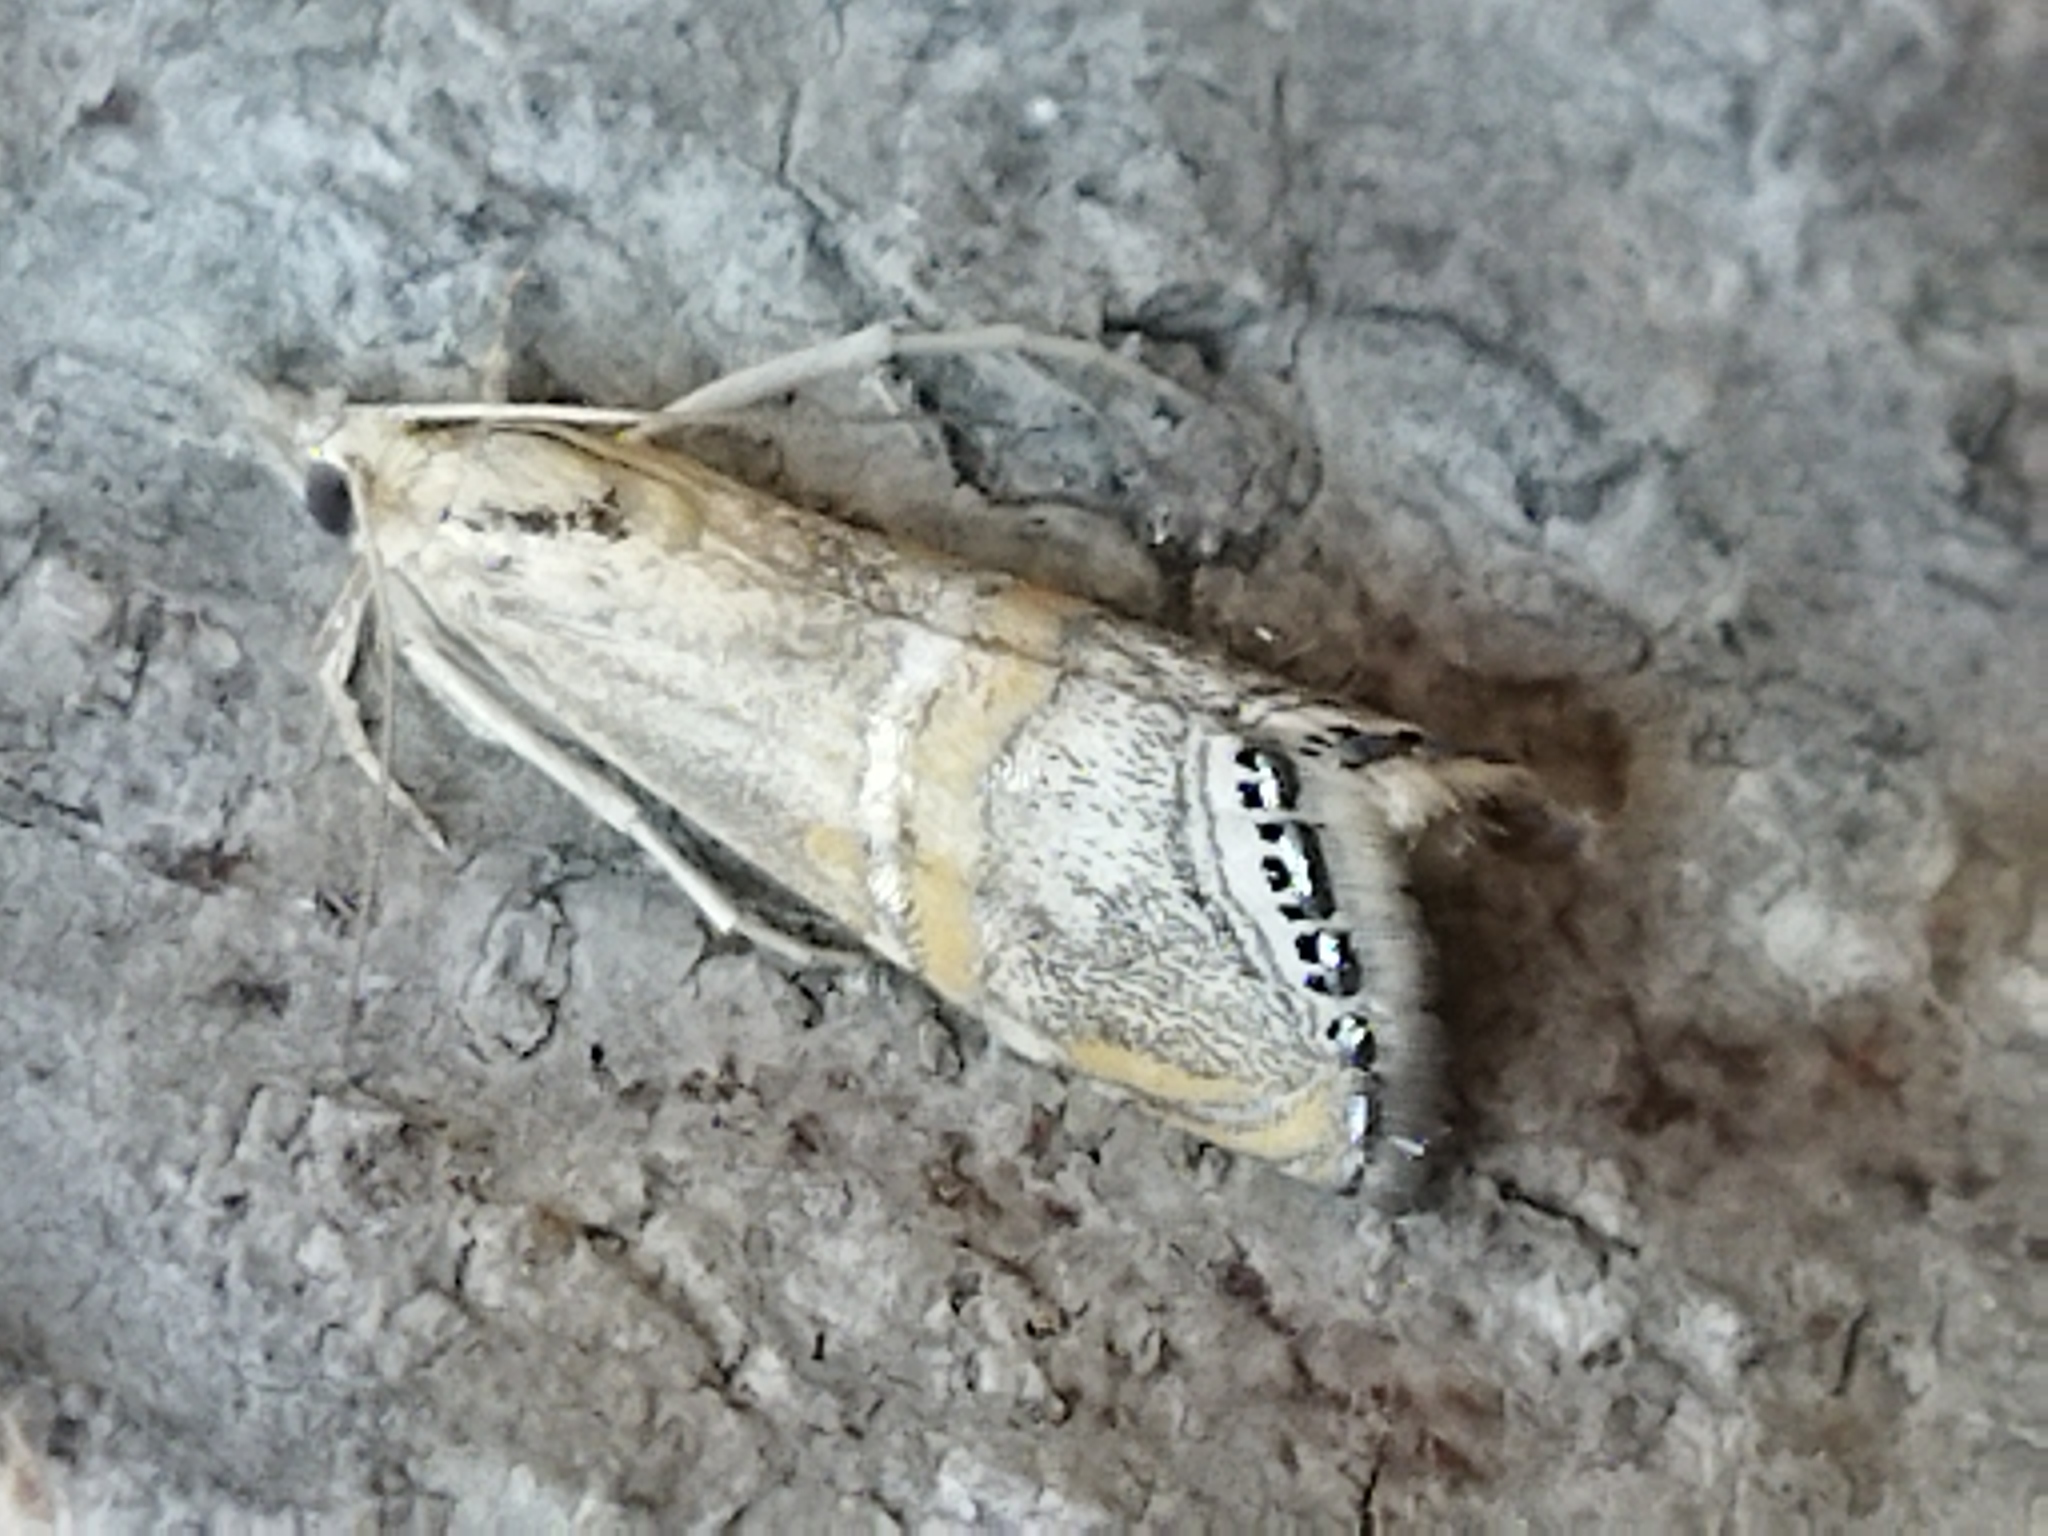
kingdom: Animalia
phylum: Arthropoda
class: Insecta
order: Lepidoptera
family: Crambidae
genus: Euchromius
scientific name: Euchromius bella
